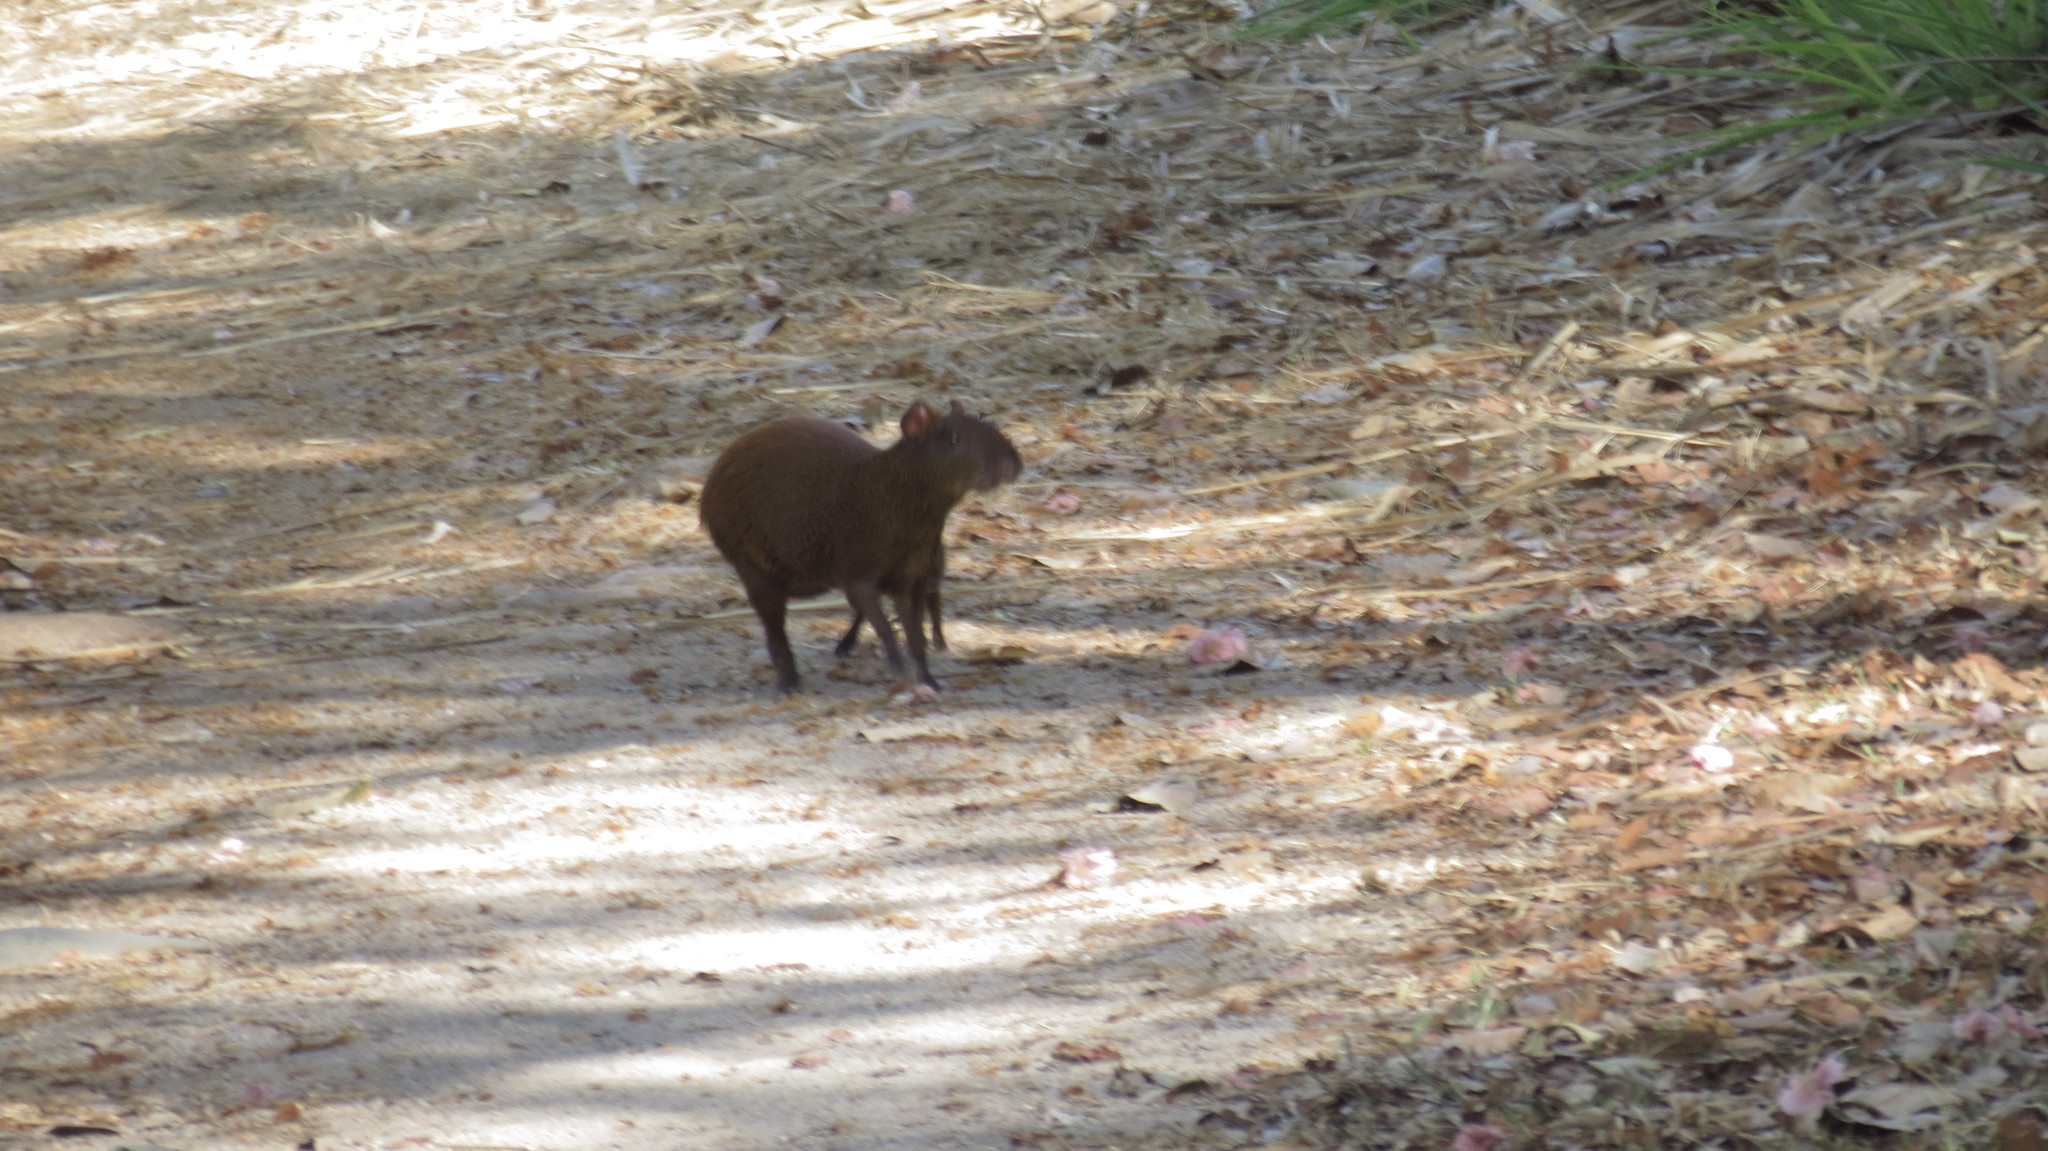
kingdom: Animalia
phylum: Chordata
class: Mammalia
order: Rodentia
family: Dasyproctidae
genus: Dasyprocta
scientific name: Dasyprocta punctata
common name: Central american agouti
